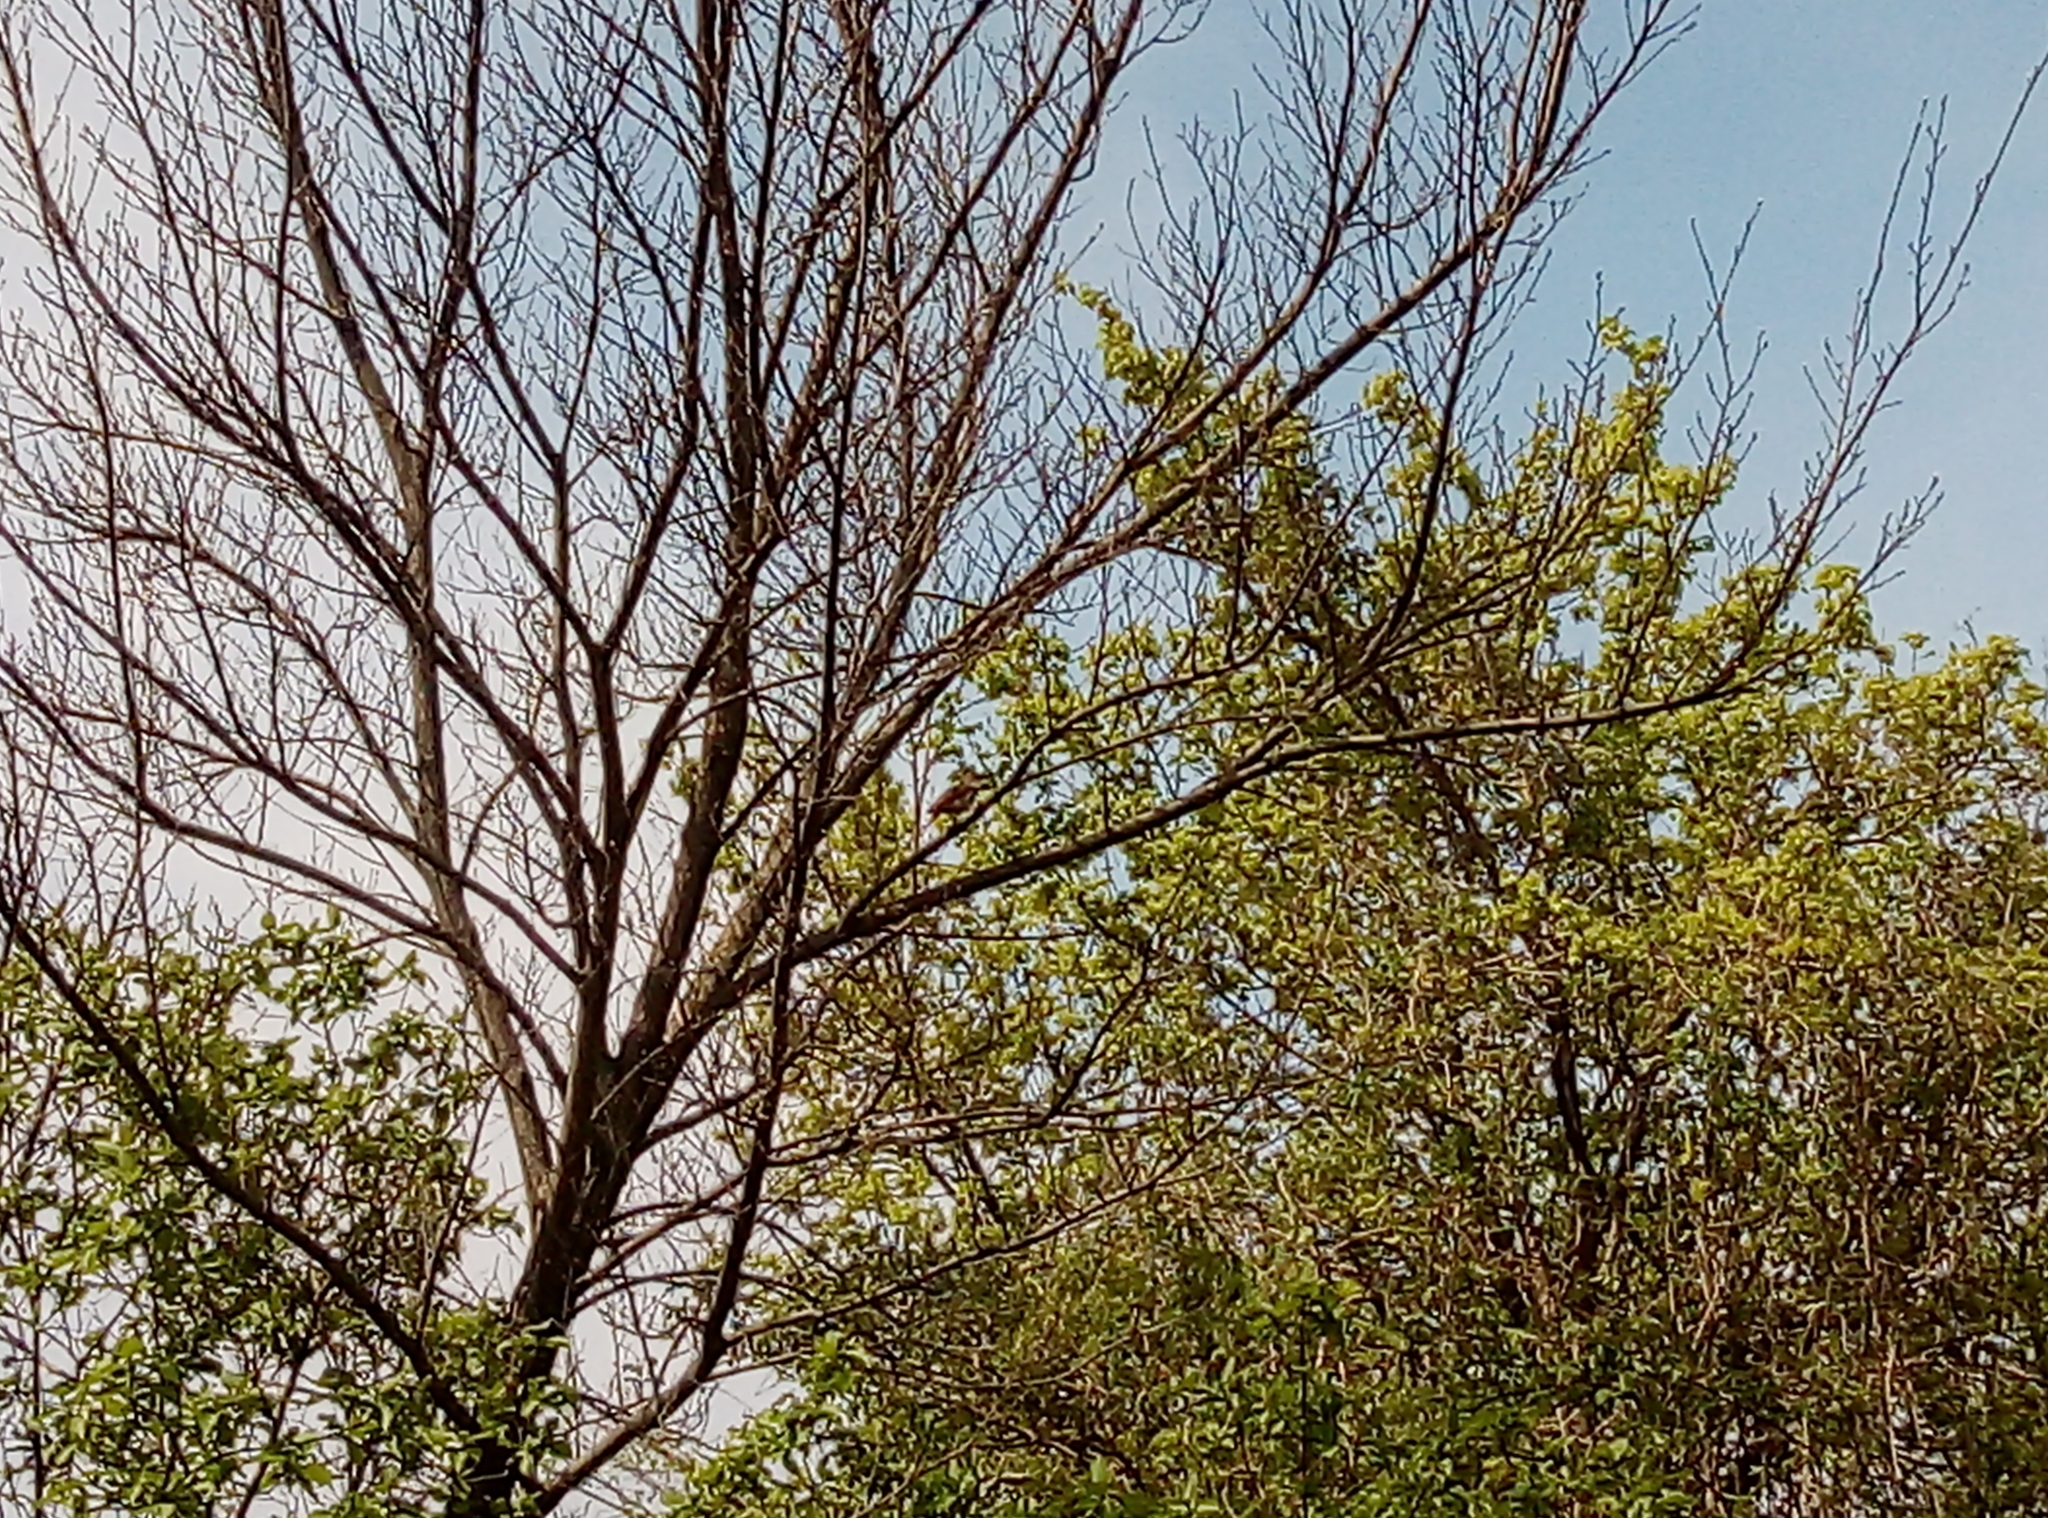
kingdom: Animalia
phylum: Chordata
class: Aves
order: Passeriformes
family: Muscicapidae
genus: Luscinia
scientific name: Luscinia megarhynchos
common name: Common nightingale
